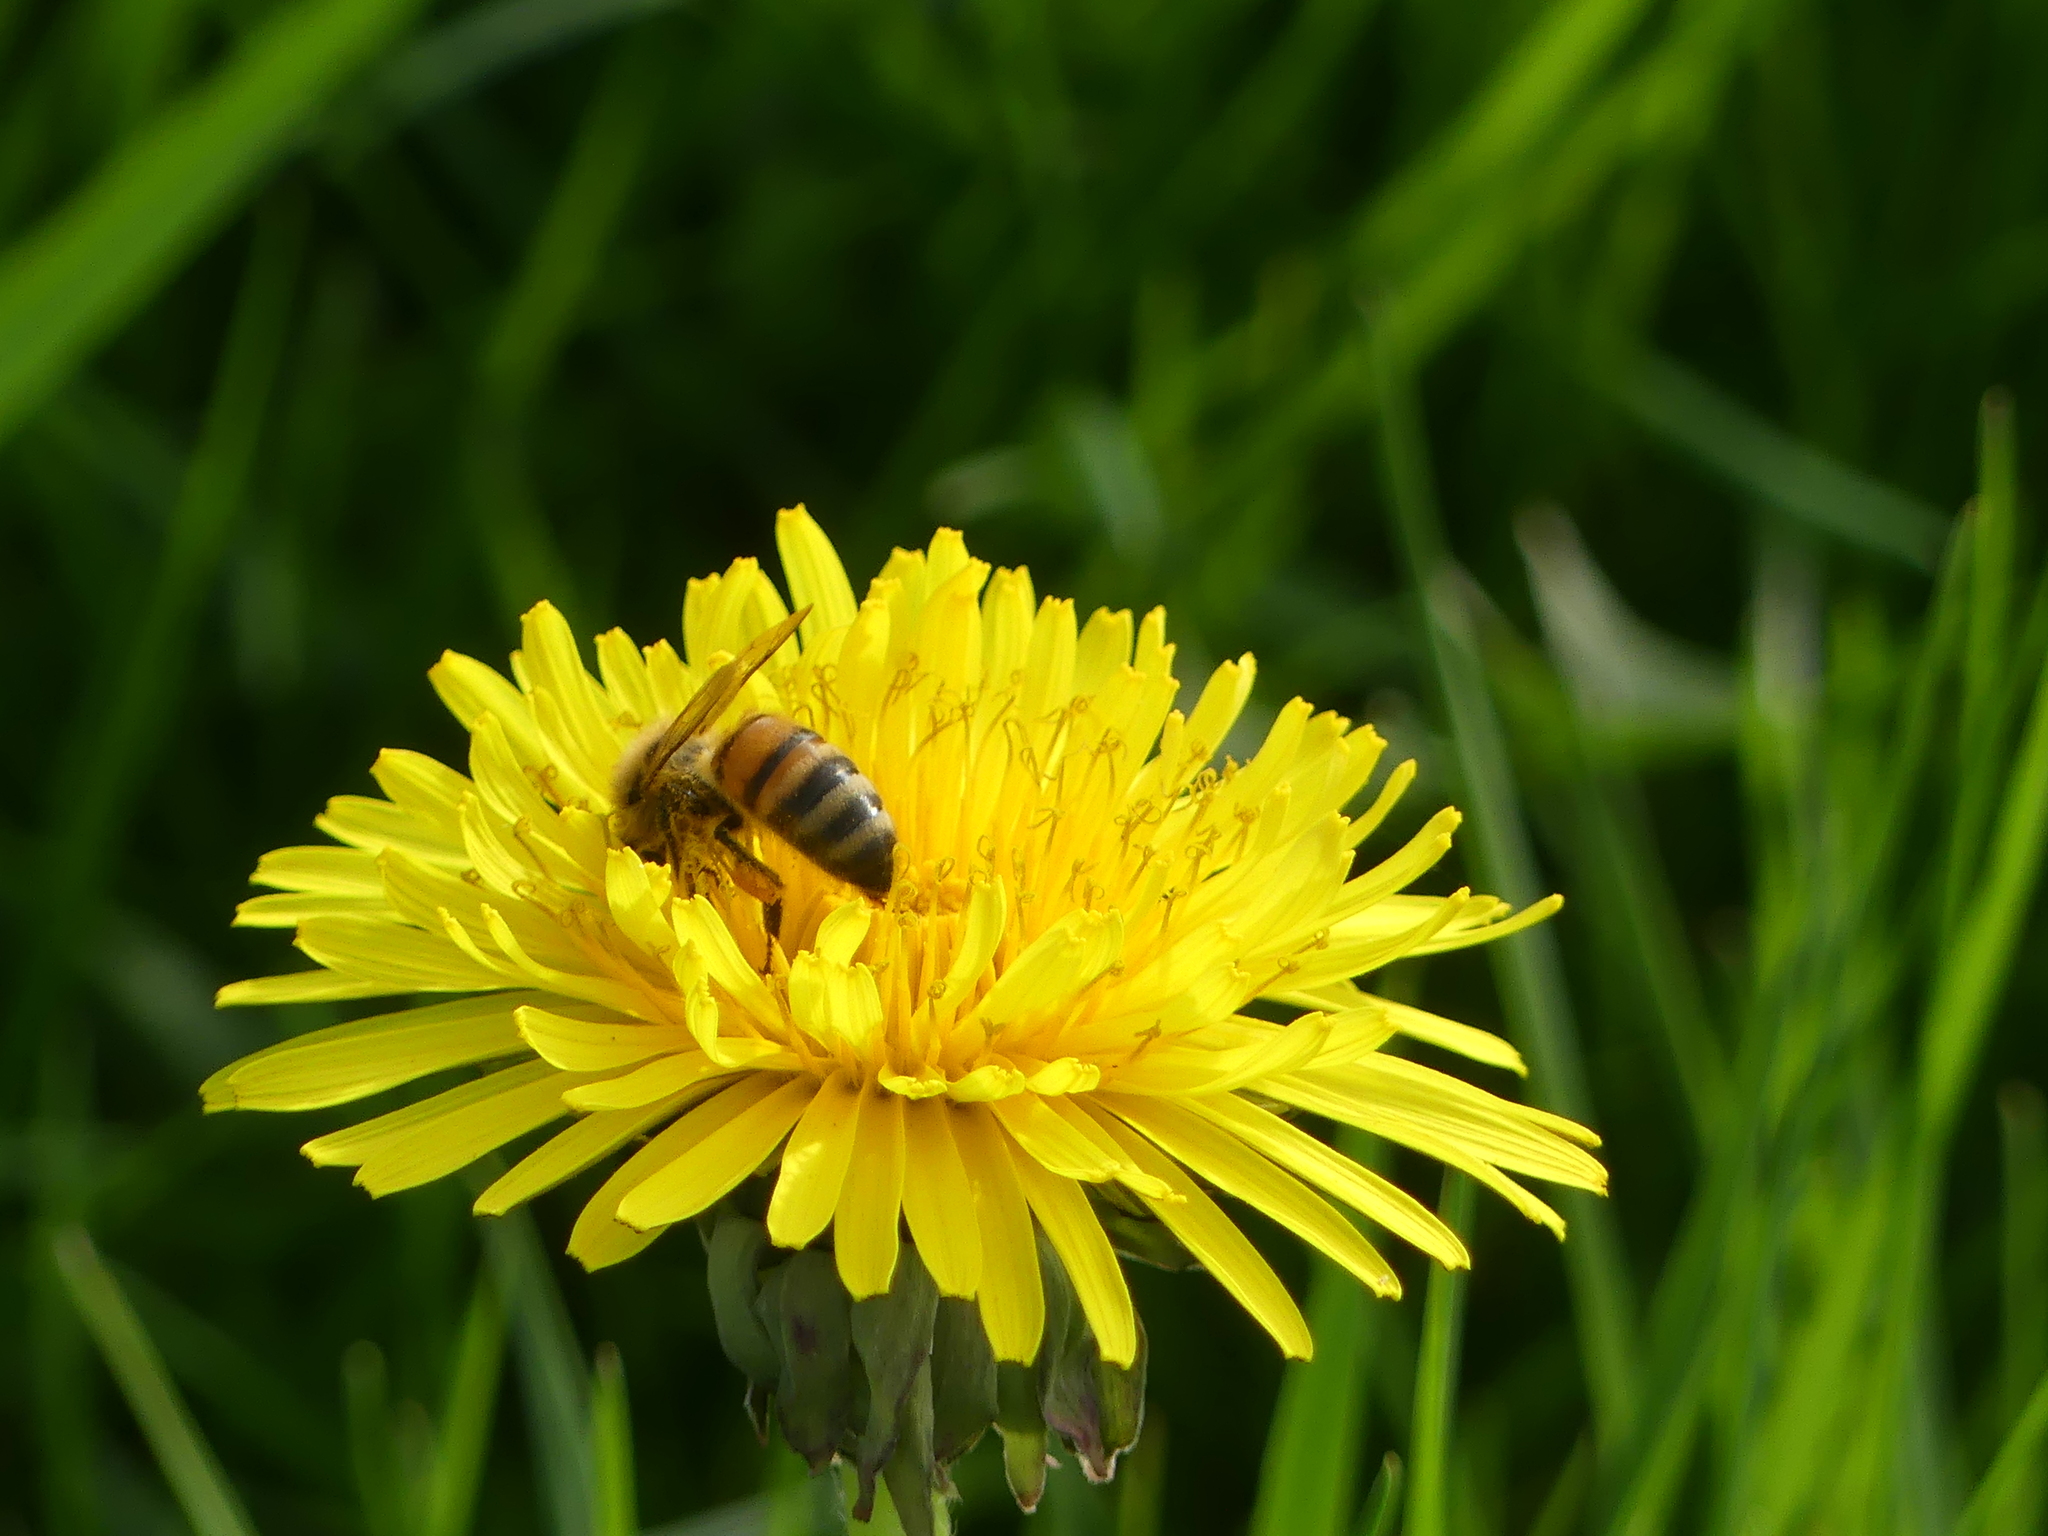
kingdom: Animalia
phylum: Arthropoda
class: Insecta
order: Hymenoptera
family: Apidae
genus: Apis
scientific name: Apis mellifera
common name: Honey bee
